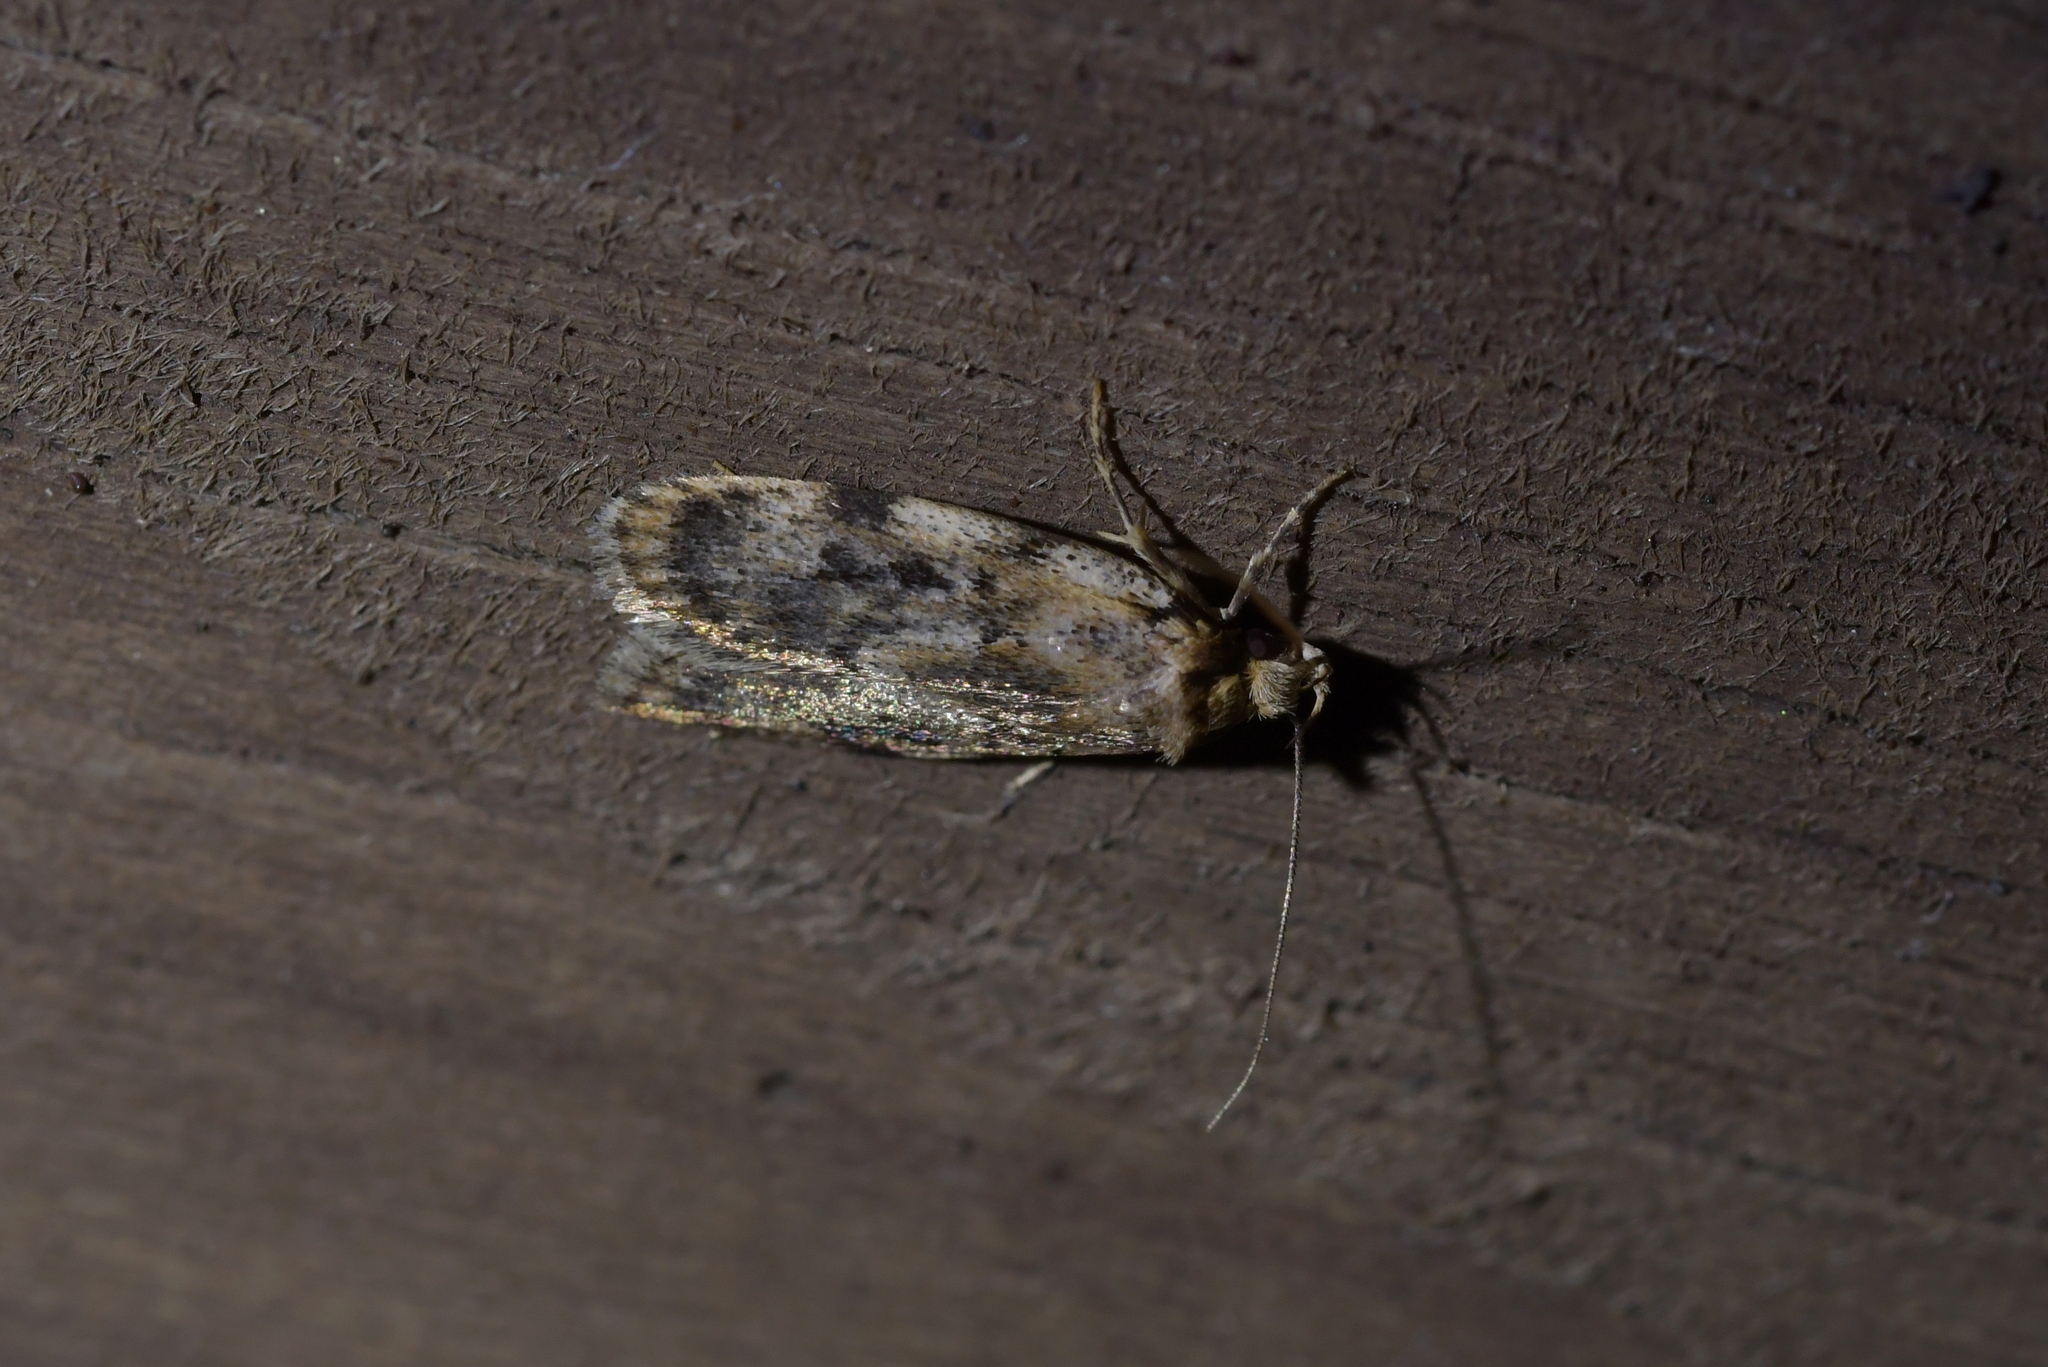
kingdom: Animalia
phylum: Arthropoda
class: Insecta
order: Lepidoptera
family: Oecophoridae
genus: Barea
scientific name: Barea exarcha
